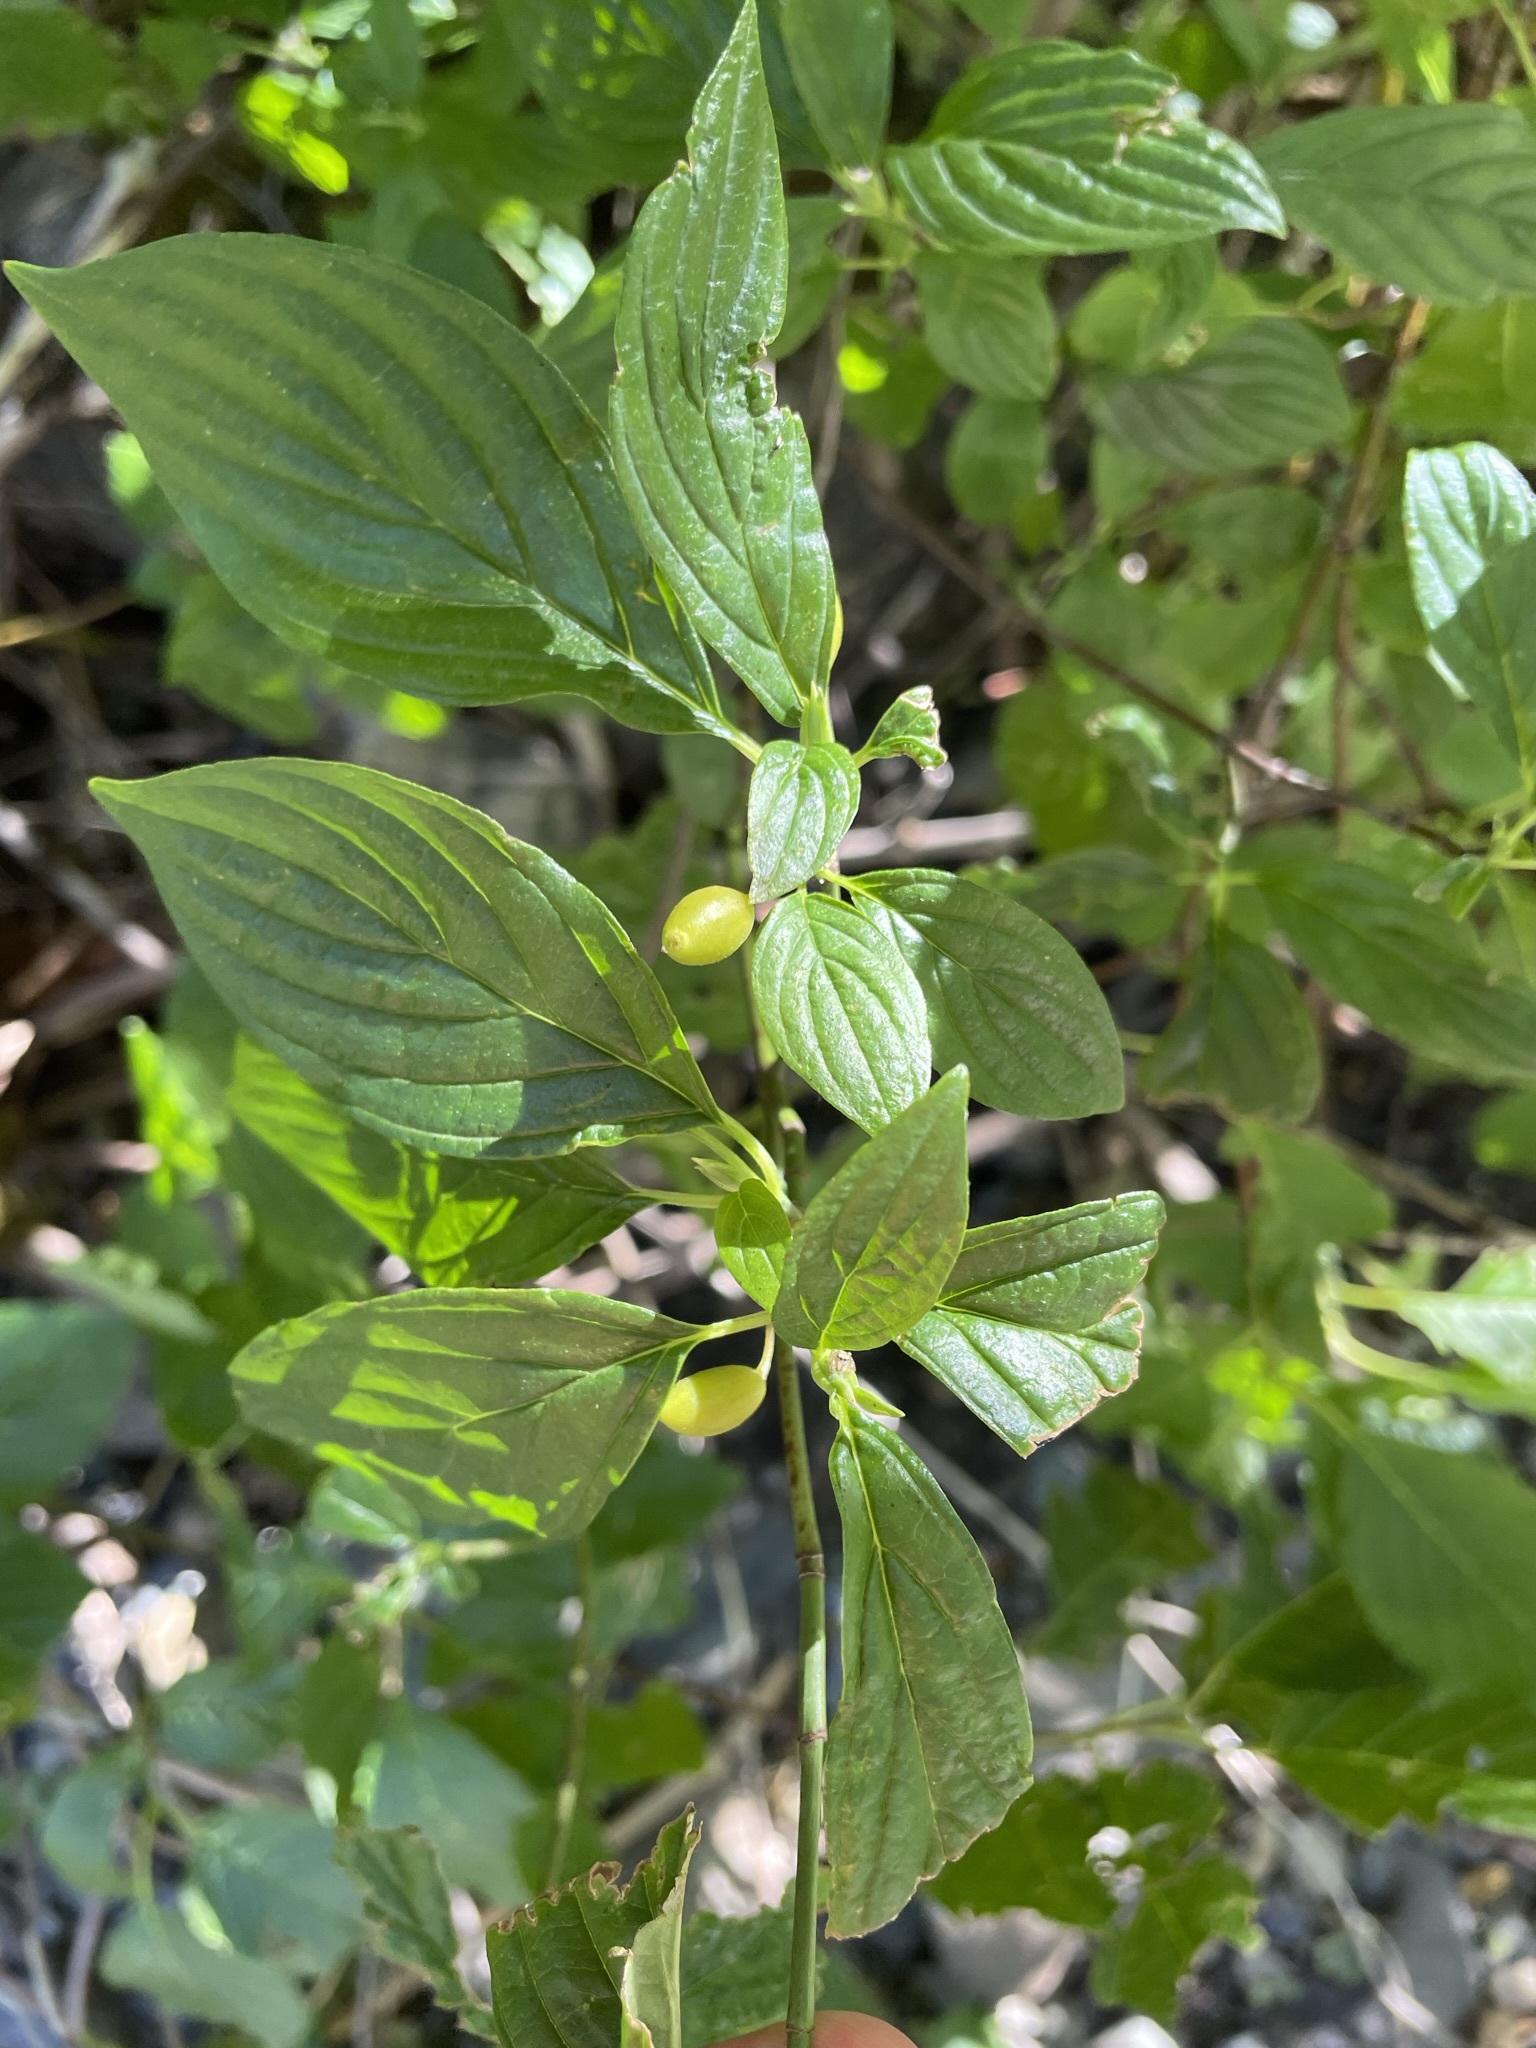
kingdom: Plantae
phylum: Tracheophyta
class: Magnoliopsida
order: Cornales
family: Cornaceae
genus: Cornus
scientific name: Cornus sessilis
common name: Blackfruit dogwood
